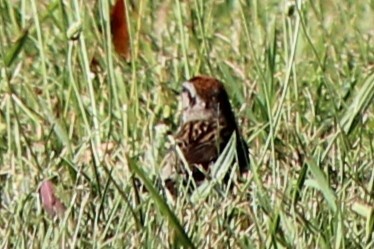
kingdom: Animalia
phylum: Chordata
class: Aves
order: Passeriformes
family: Passerellidae
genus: Spizella
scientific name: Spizella passerina
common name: Chipping sparrow
